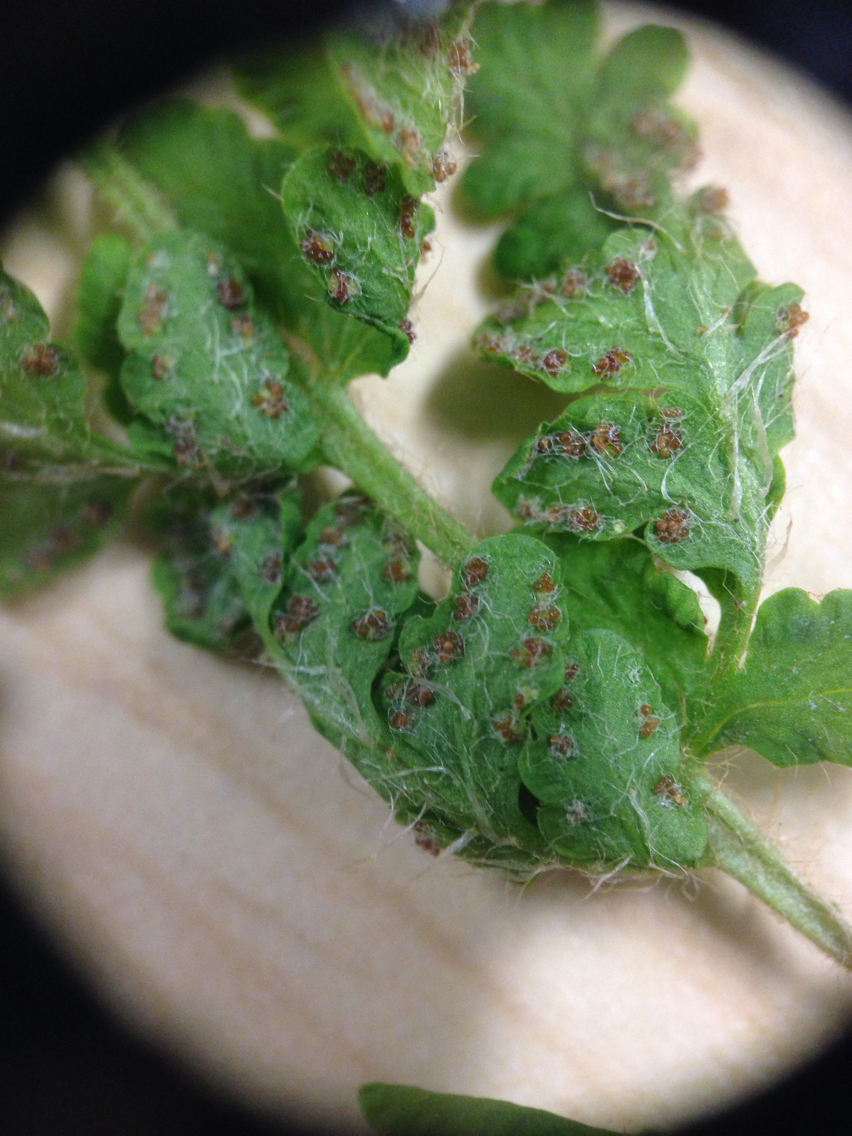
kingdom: Plantae
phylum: Tracheophyta
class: Polypodiopsida
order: Polypodiales
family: Woodsiaceae
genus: Woodsia
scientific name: Woodsia ilvensis
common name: Fragrant woodsia
